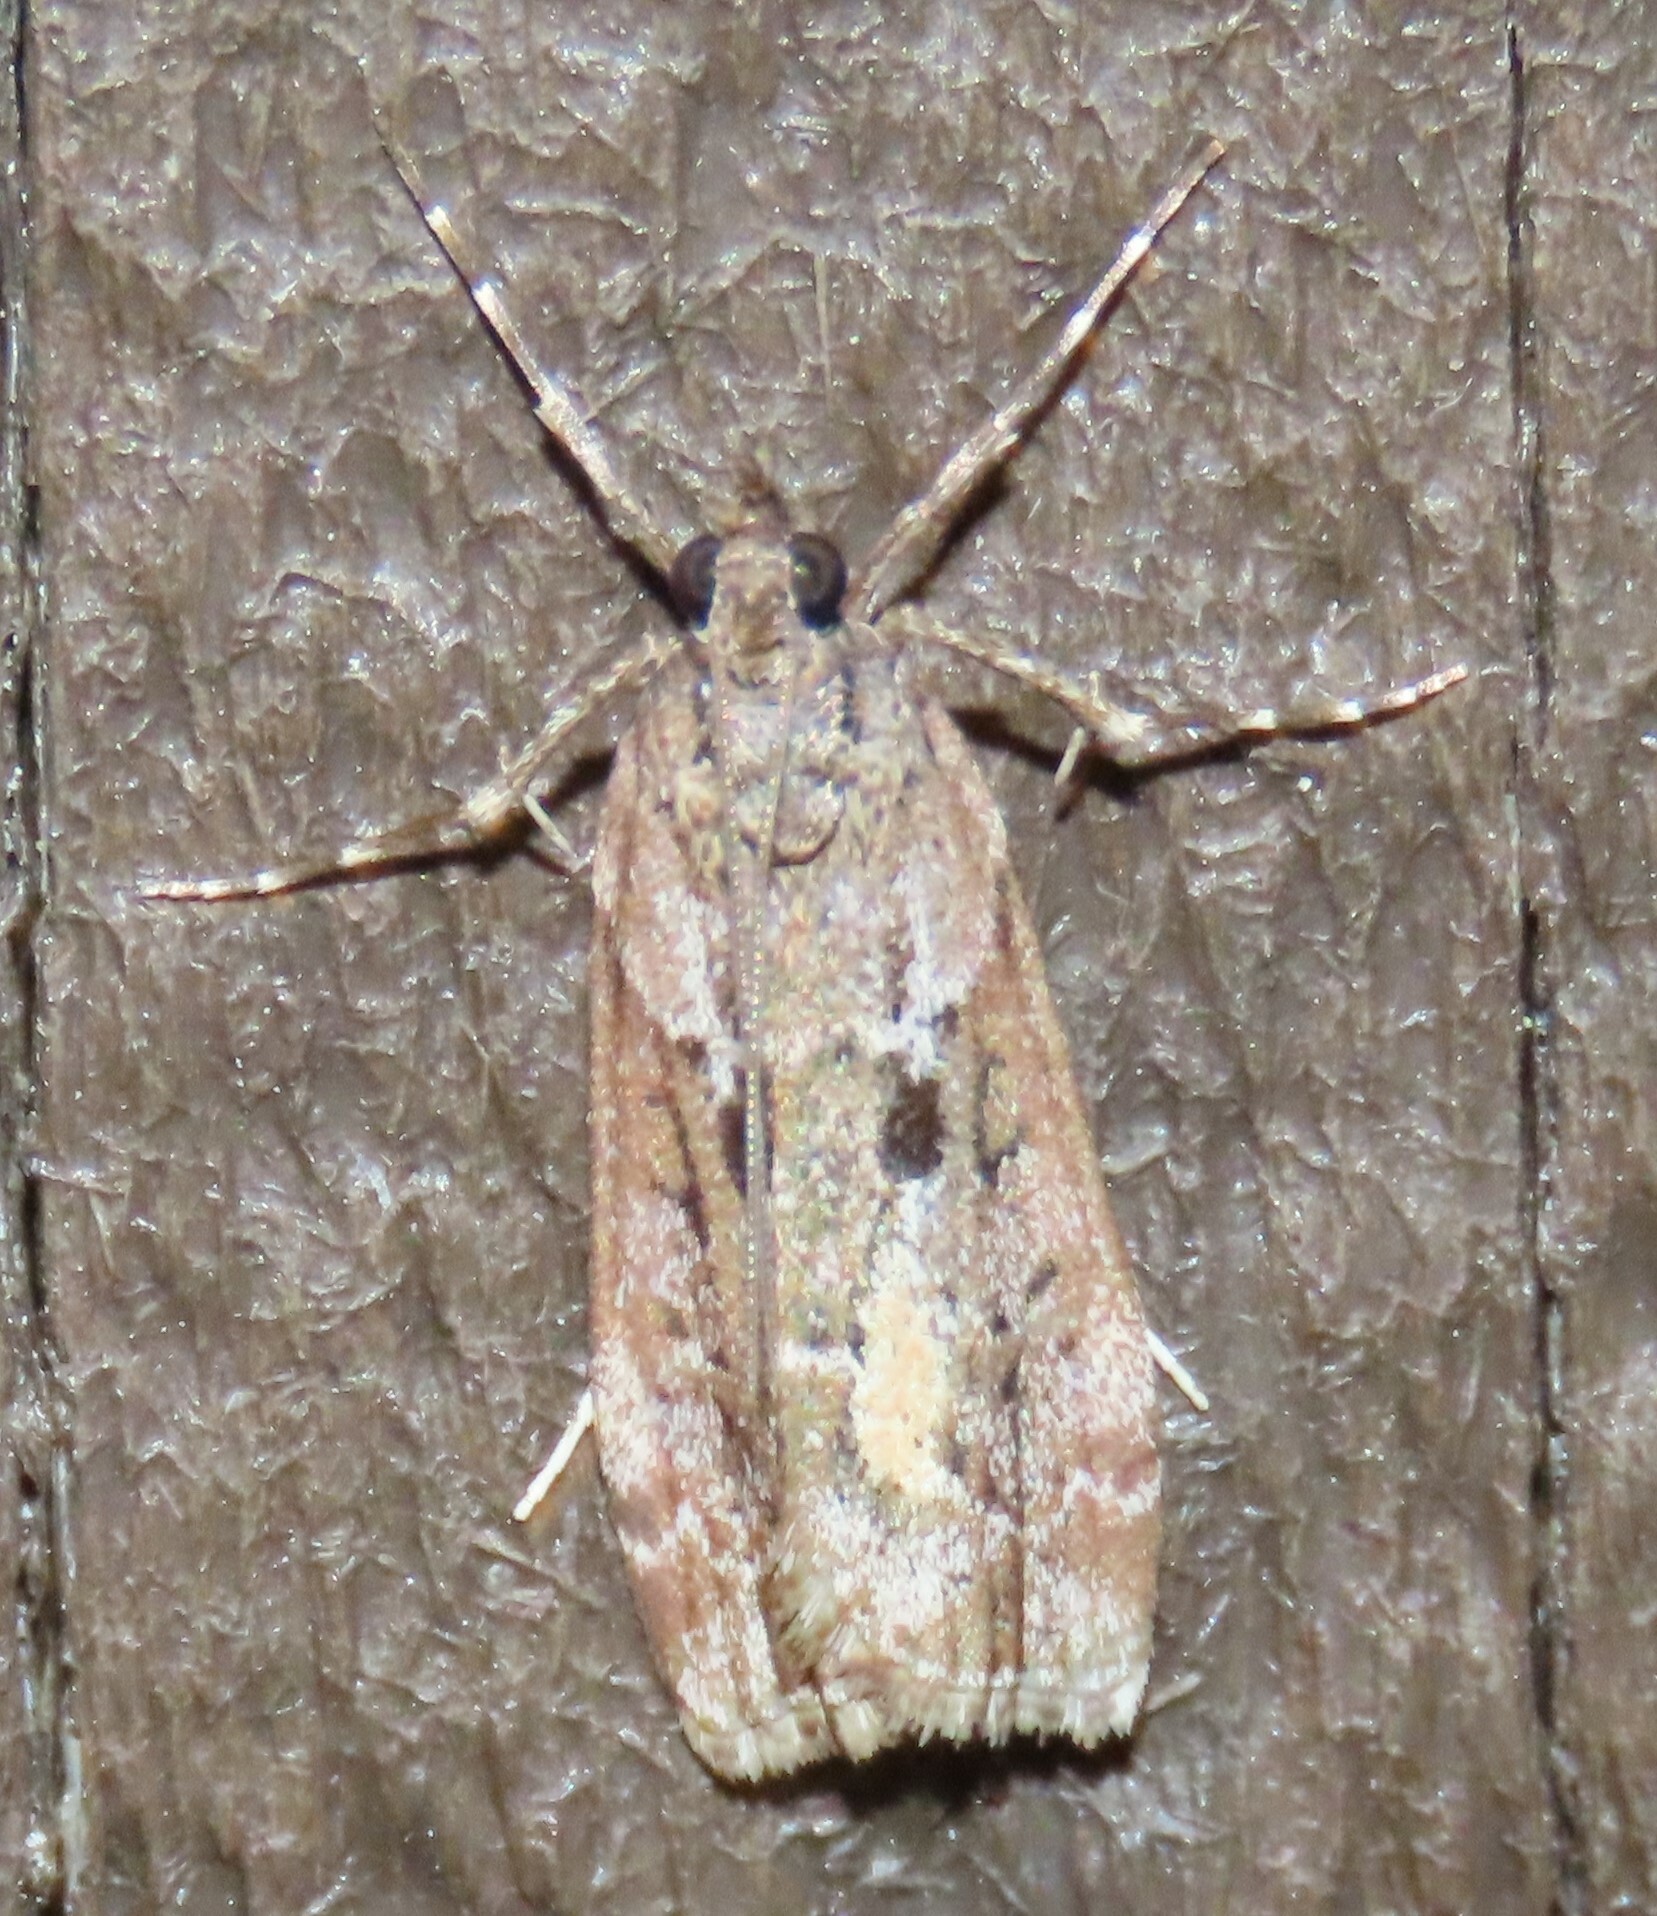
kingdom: Animalia
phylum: Arthropoda
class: Insecta
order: Lepidoptera
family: Crambidae
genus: Eudonia
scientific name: Eudonia submarginalis
